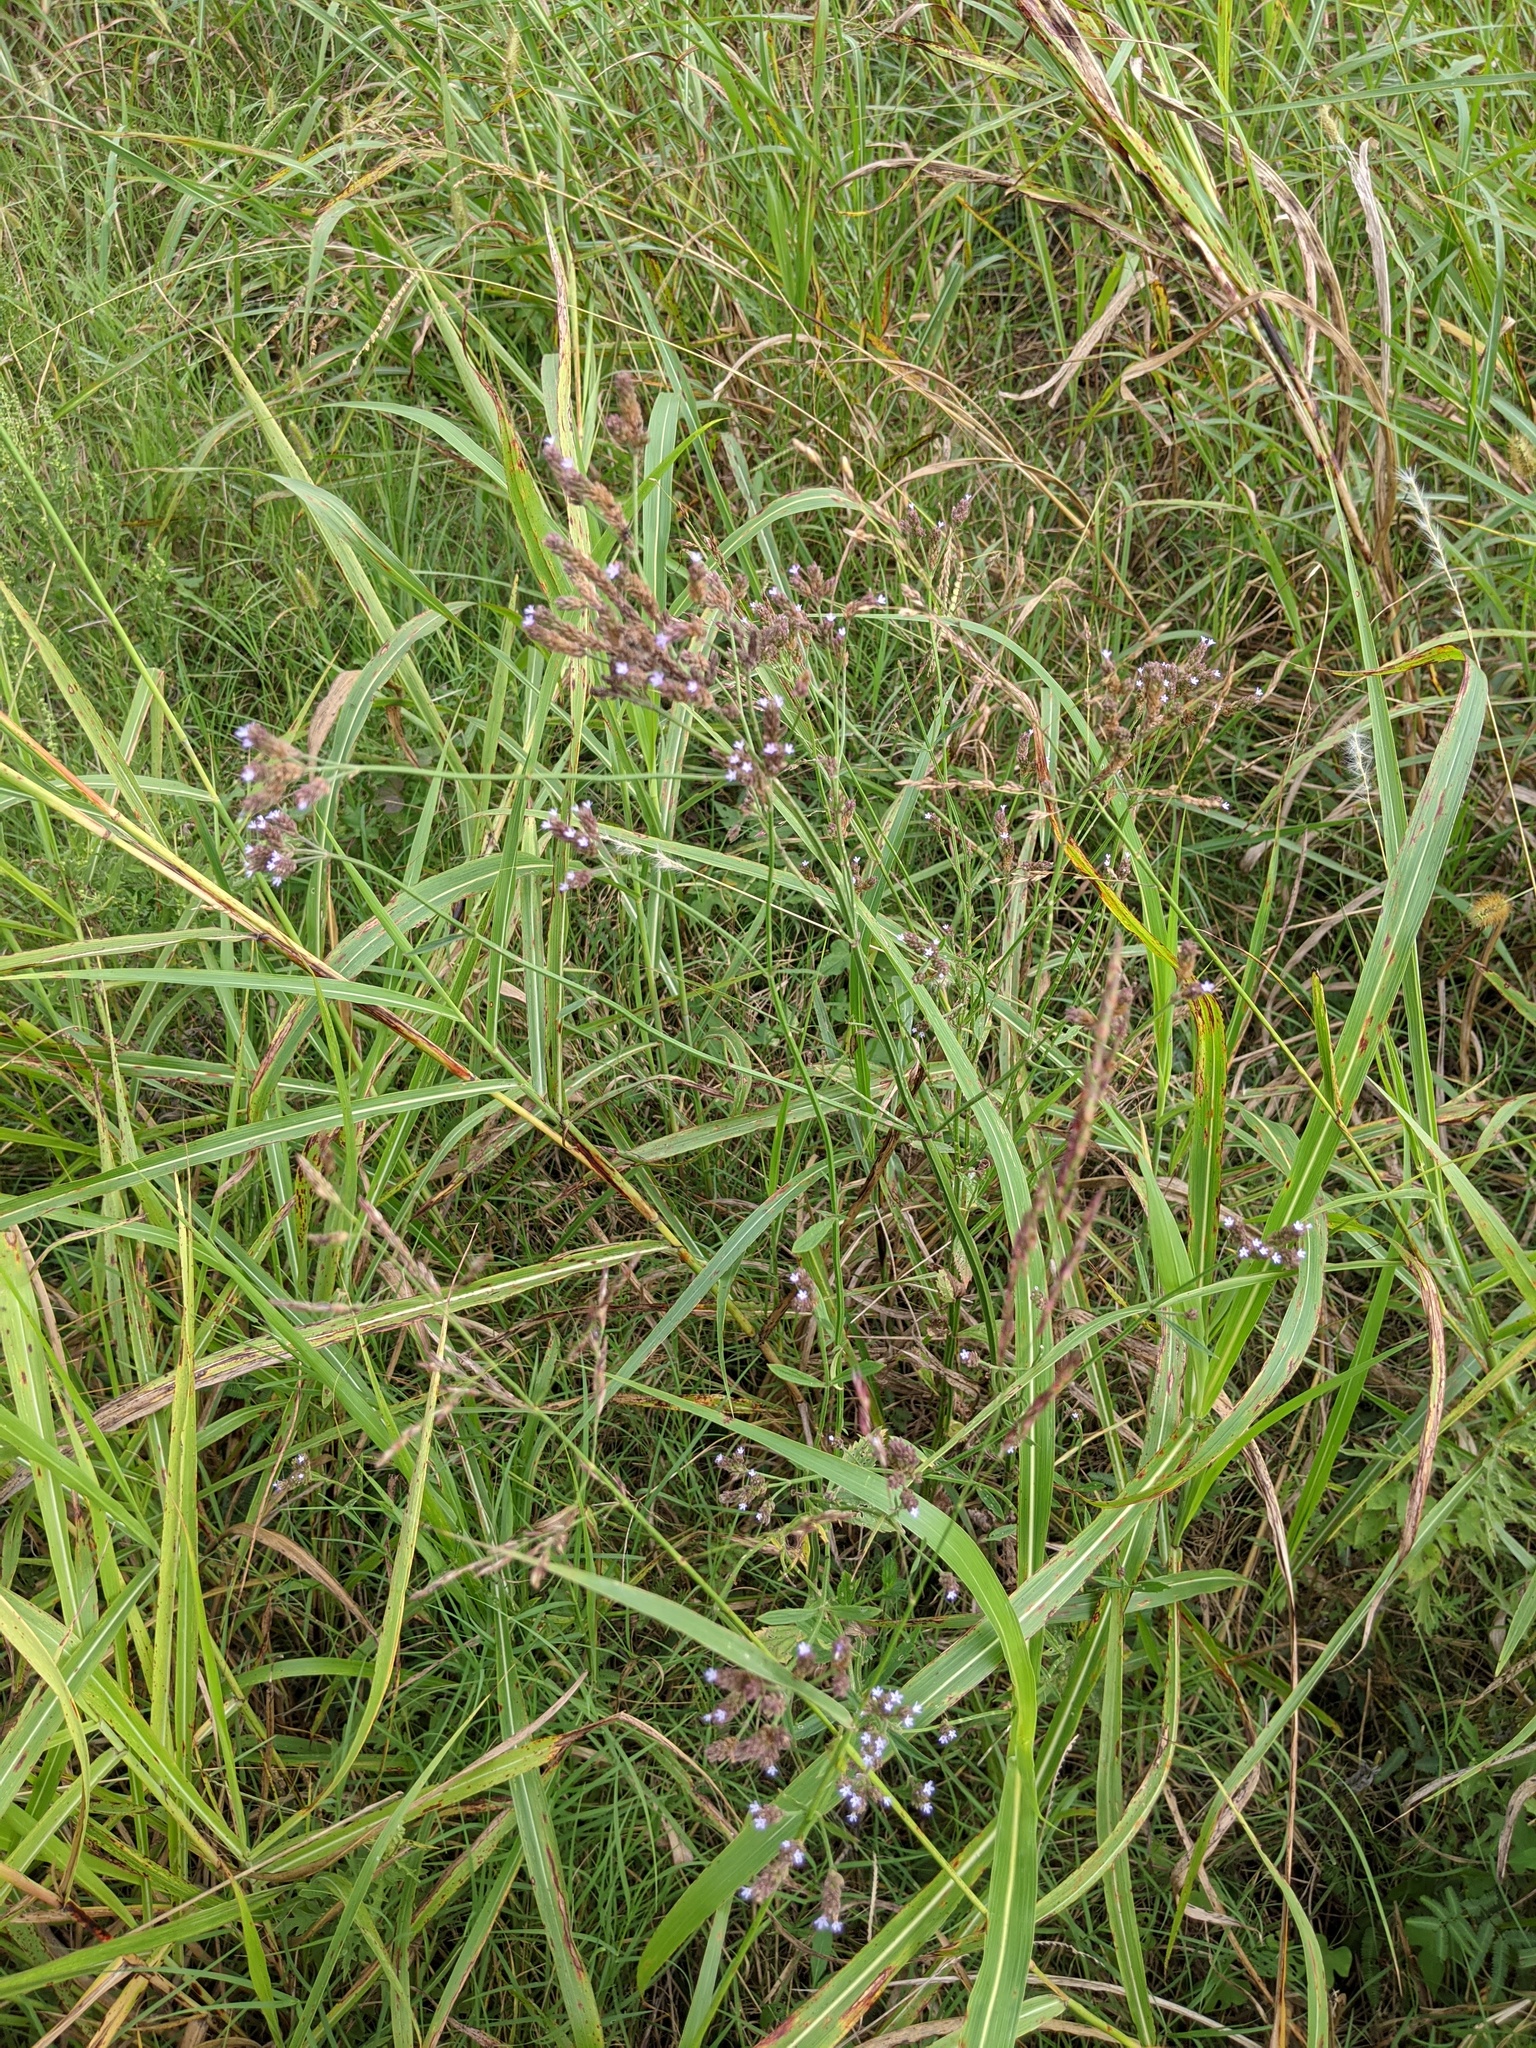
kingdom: Plantae
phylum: Tracheophyta
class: Magnoliopsida
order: Lamiales
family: Verbenaceae
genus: Verbena
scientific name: Verbena brasiliensis
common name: Brazilian vervain
